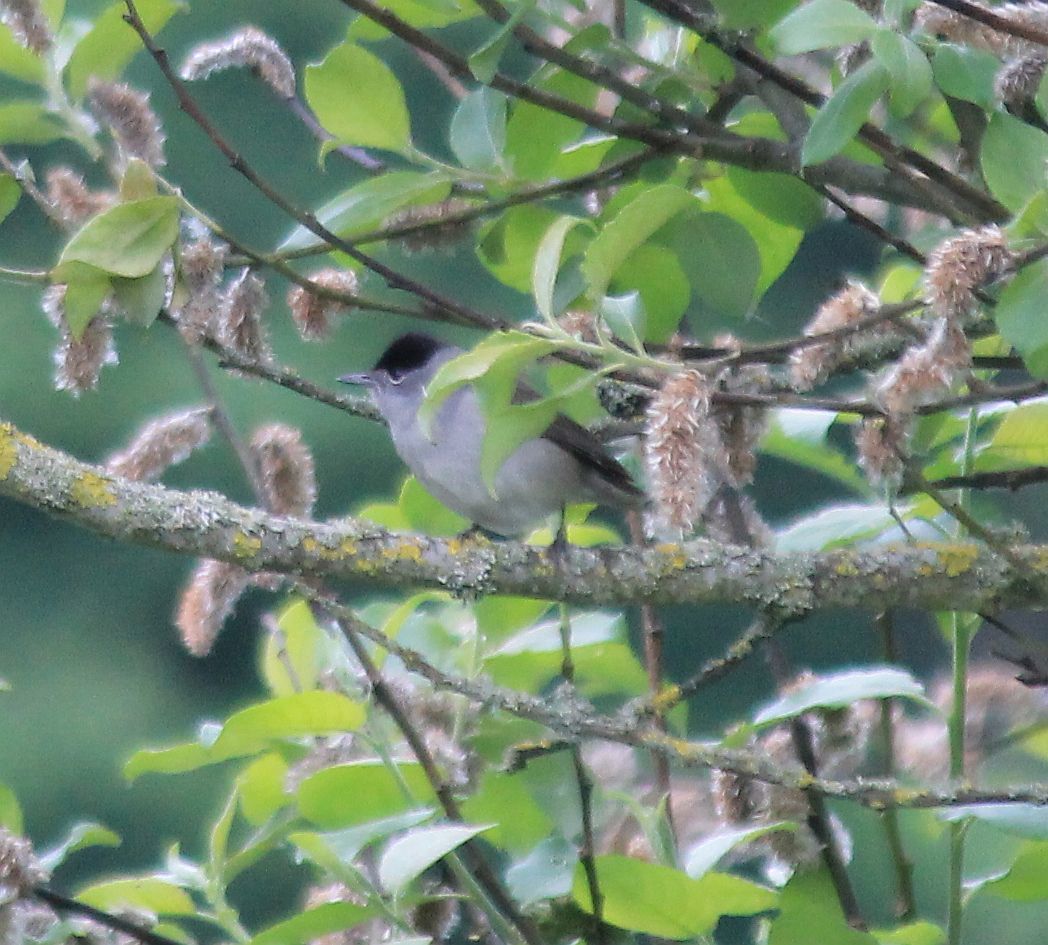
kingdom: Animalia
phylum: Chordata
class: Aves
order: Passeriformes
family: Sylviidae
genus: Sylvia
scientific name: Sylvia atricapilla
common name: Eurasian blackcap
